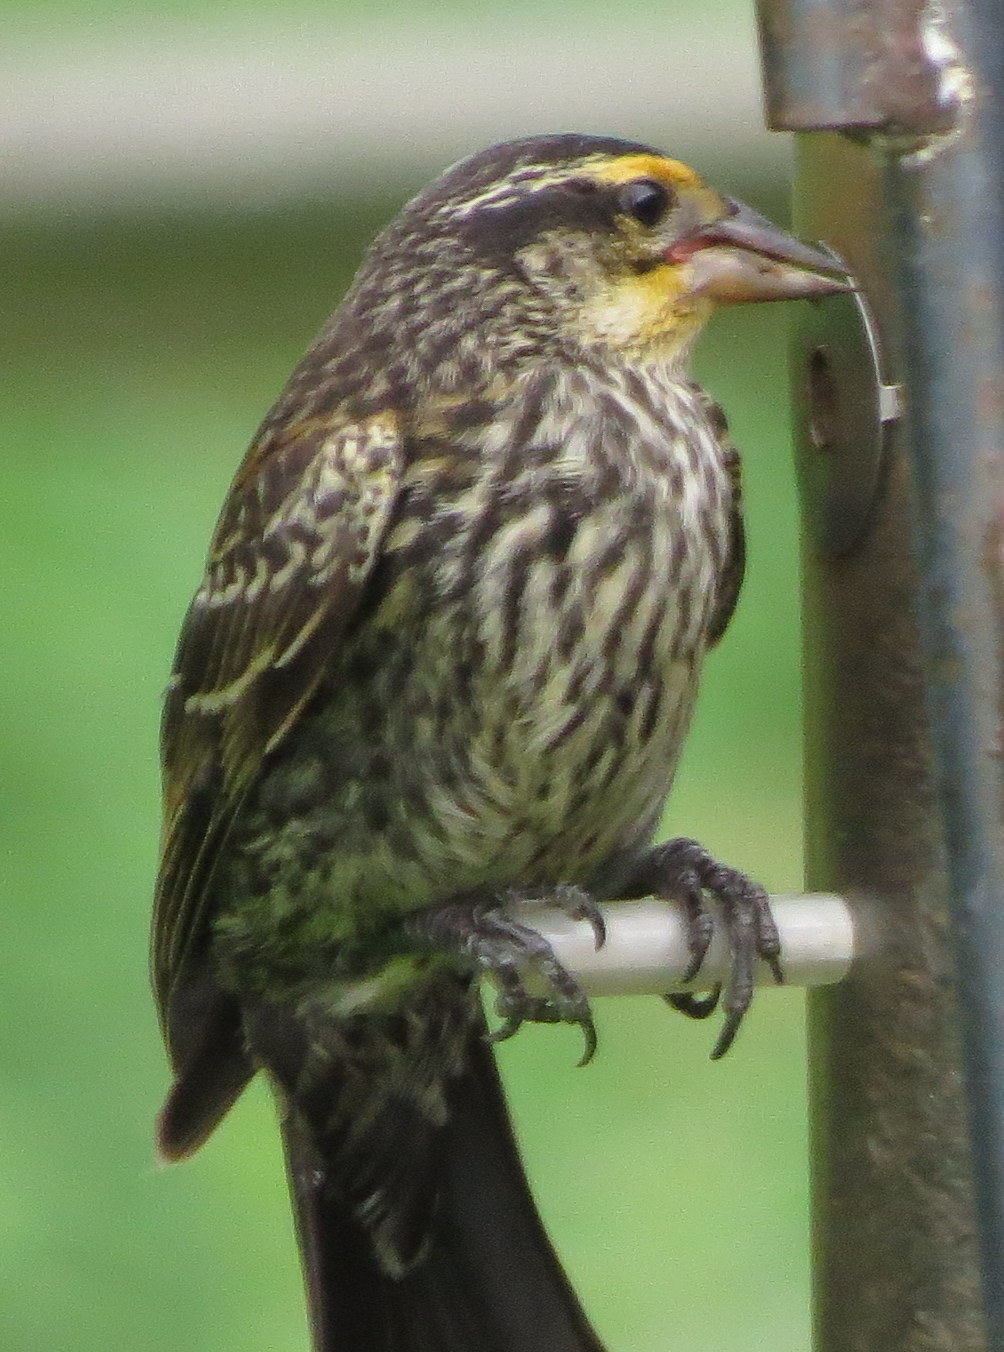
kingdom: Animalia
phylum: Chordata
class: Aves
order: Passeriformes
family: Icteridae
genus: Agelaius
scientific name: Agelaius phoeniceus
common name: Red-winged blackbird
